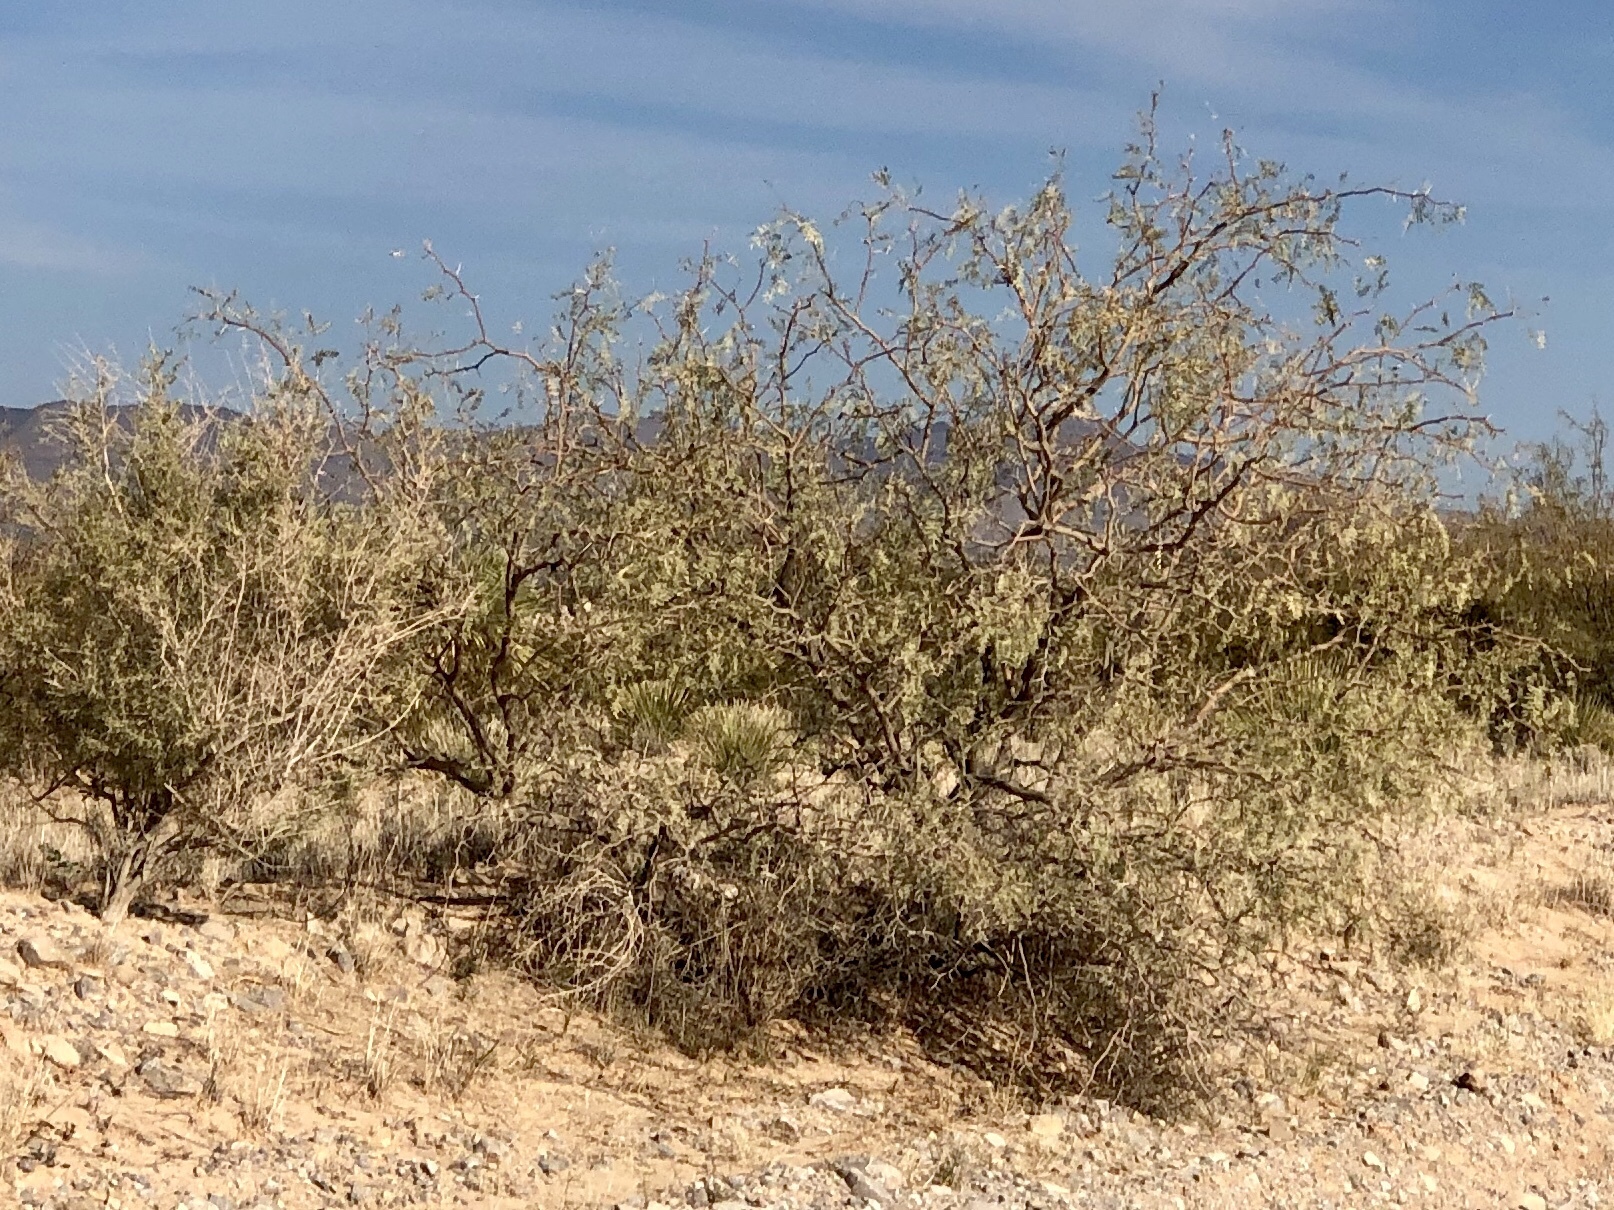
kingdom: Plantae
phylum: Tracheophyta
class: Magnoliopsida
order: Fabales
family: Fabaceae
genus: Prosopis
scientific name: Prosopis glandulosa
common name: Honey mesquite
